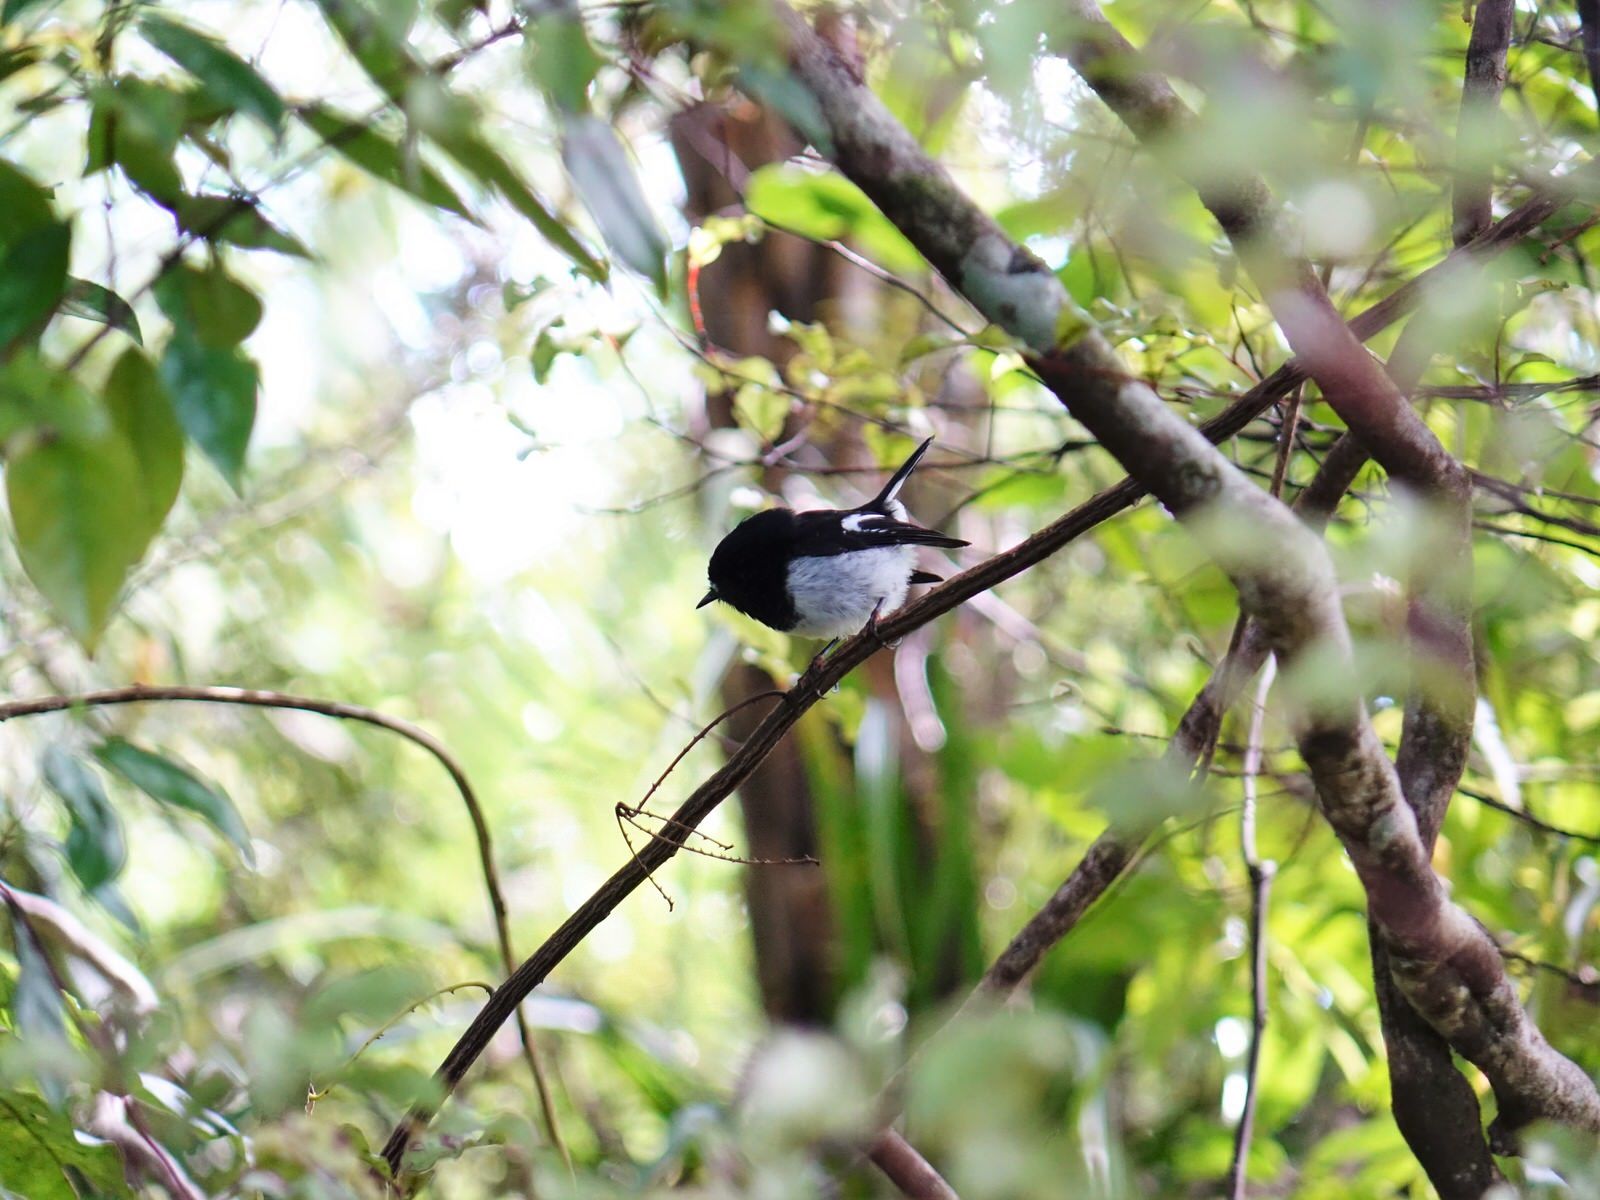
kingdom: Animalia
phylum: Chordata
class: Aves
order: Passeriformes
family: Petroicidae
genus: Petroica
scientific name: Petroica macrocephala
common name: Tomtit
